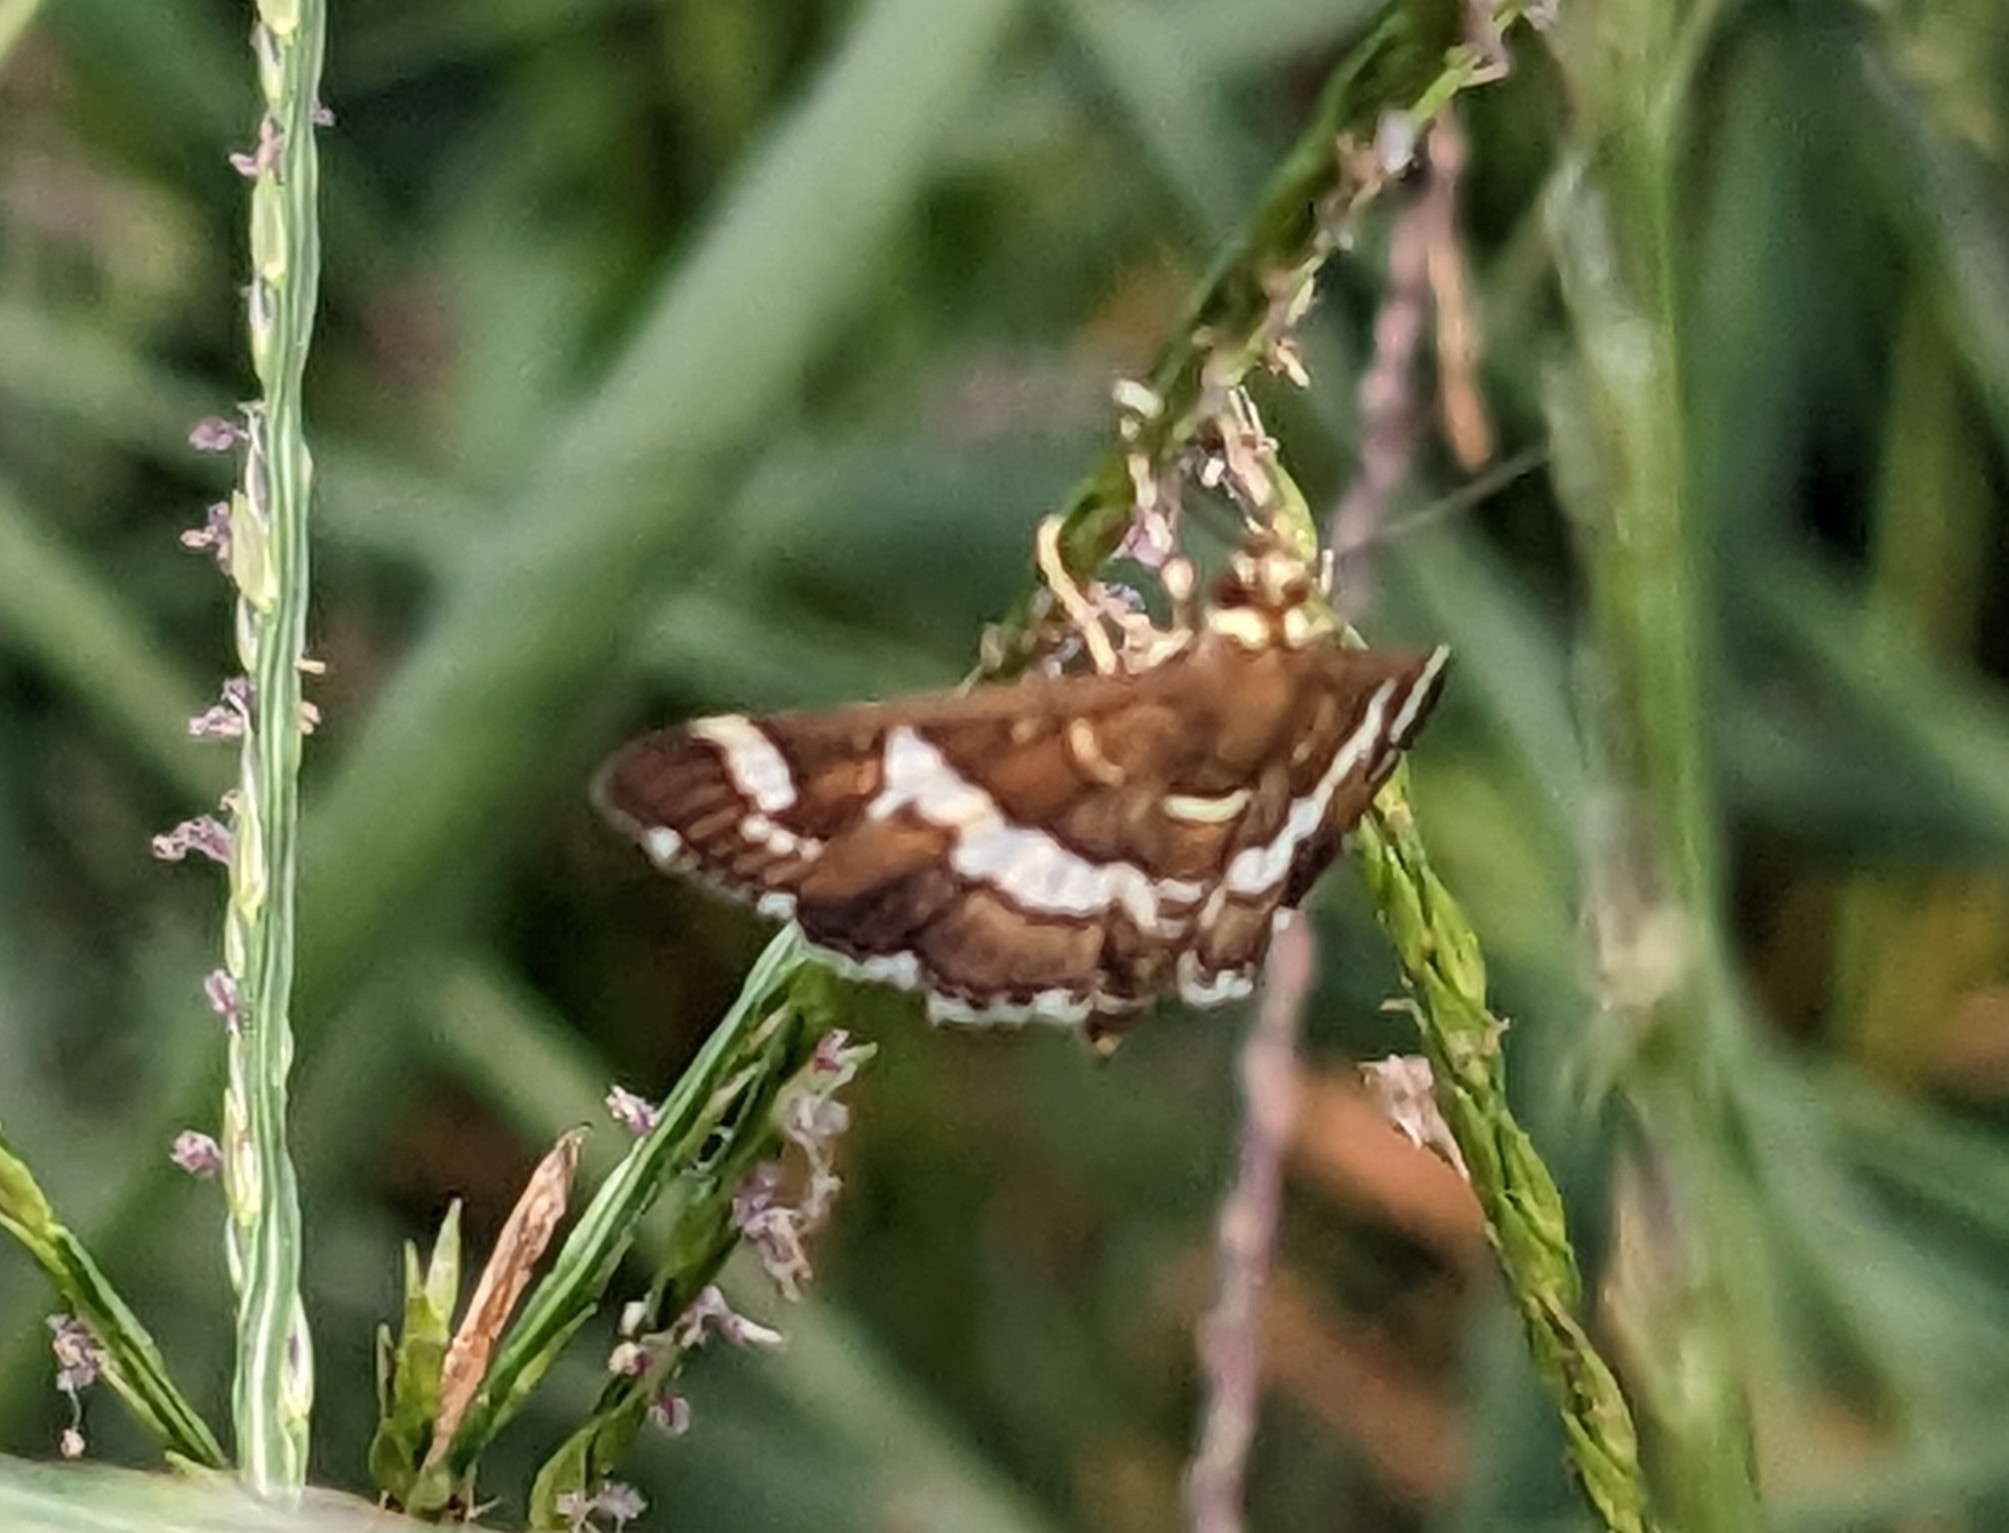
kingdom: Animalia
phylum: Arthropoda
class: Insecta
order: Lepidoptera
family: Crambidae
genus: Spoladea
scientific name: Spoladea recurvalis
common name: Beet webworm moth
